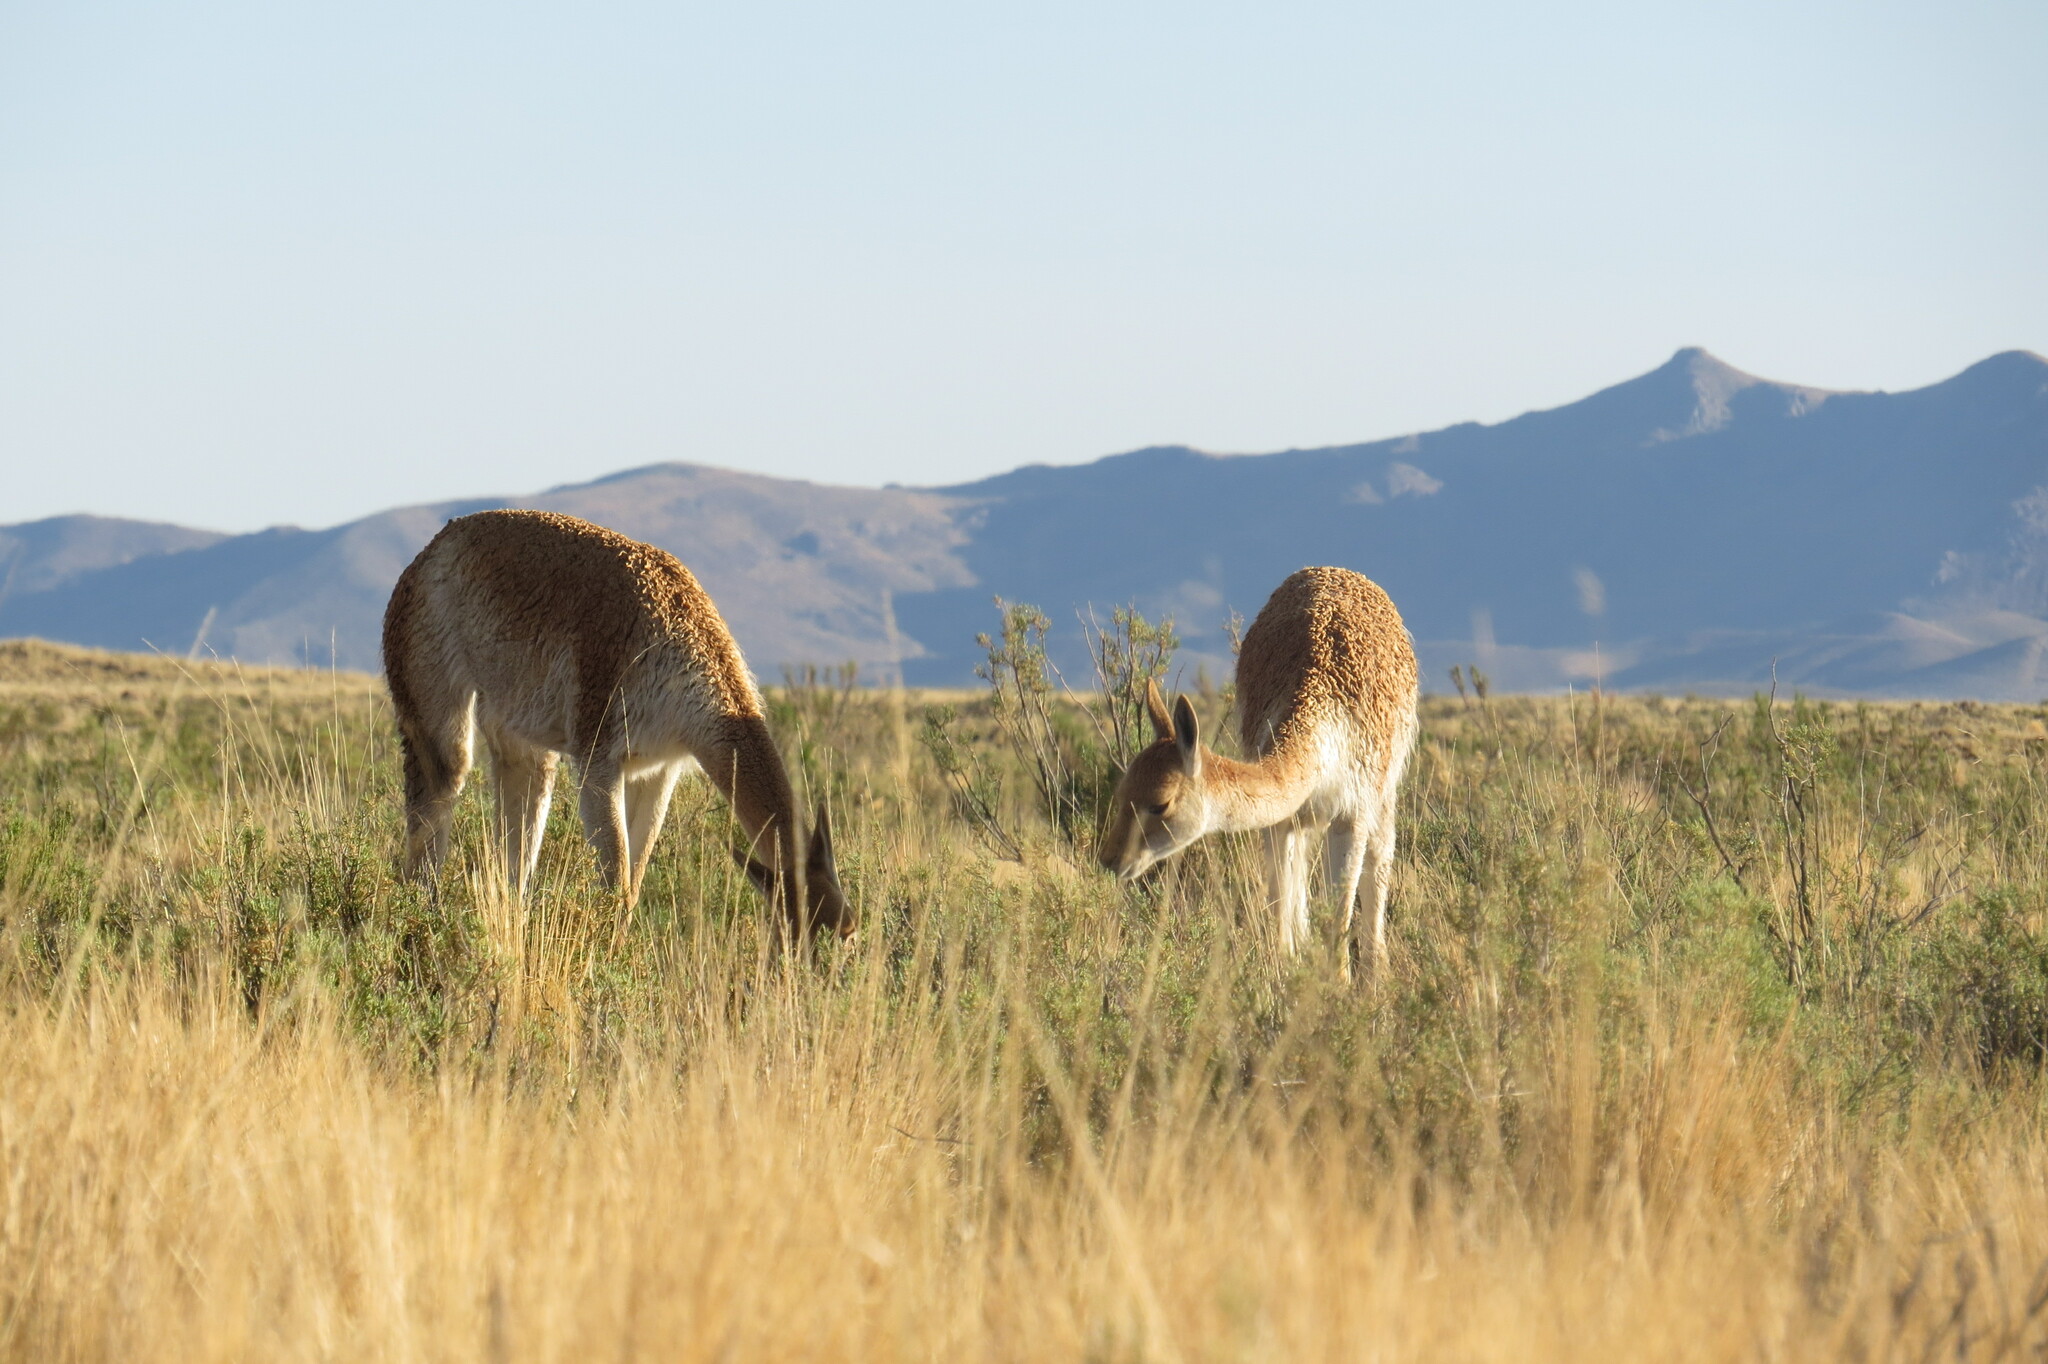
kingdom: Animalia
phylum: Chordata
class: Mammalia
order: Artiodactyla
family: Camelidae
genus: Vicugna
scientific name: Vicugna vicugna
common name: Vicugna
